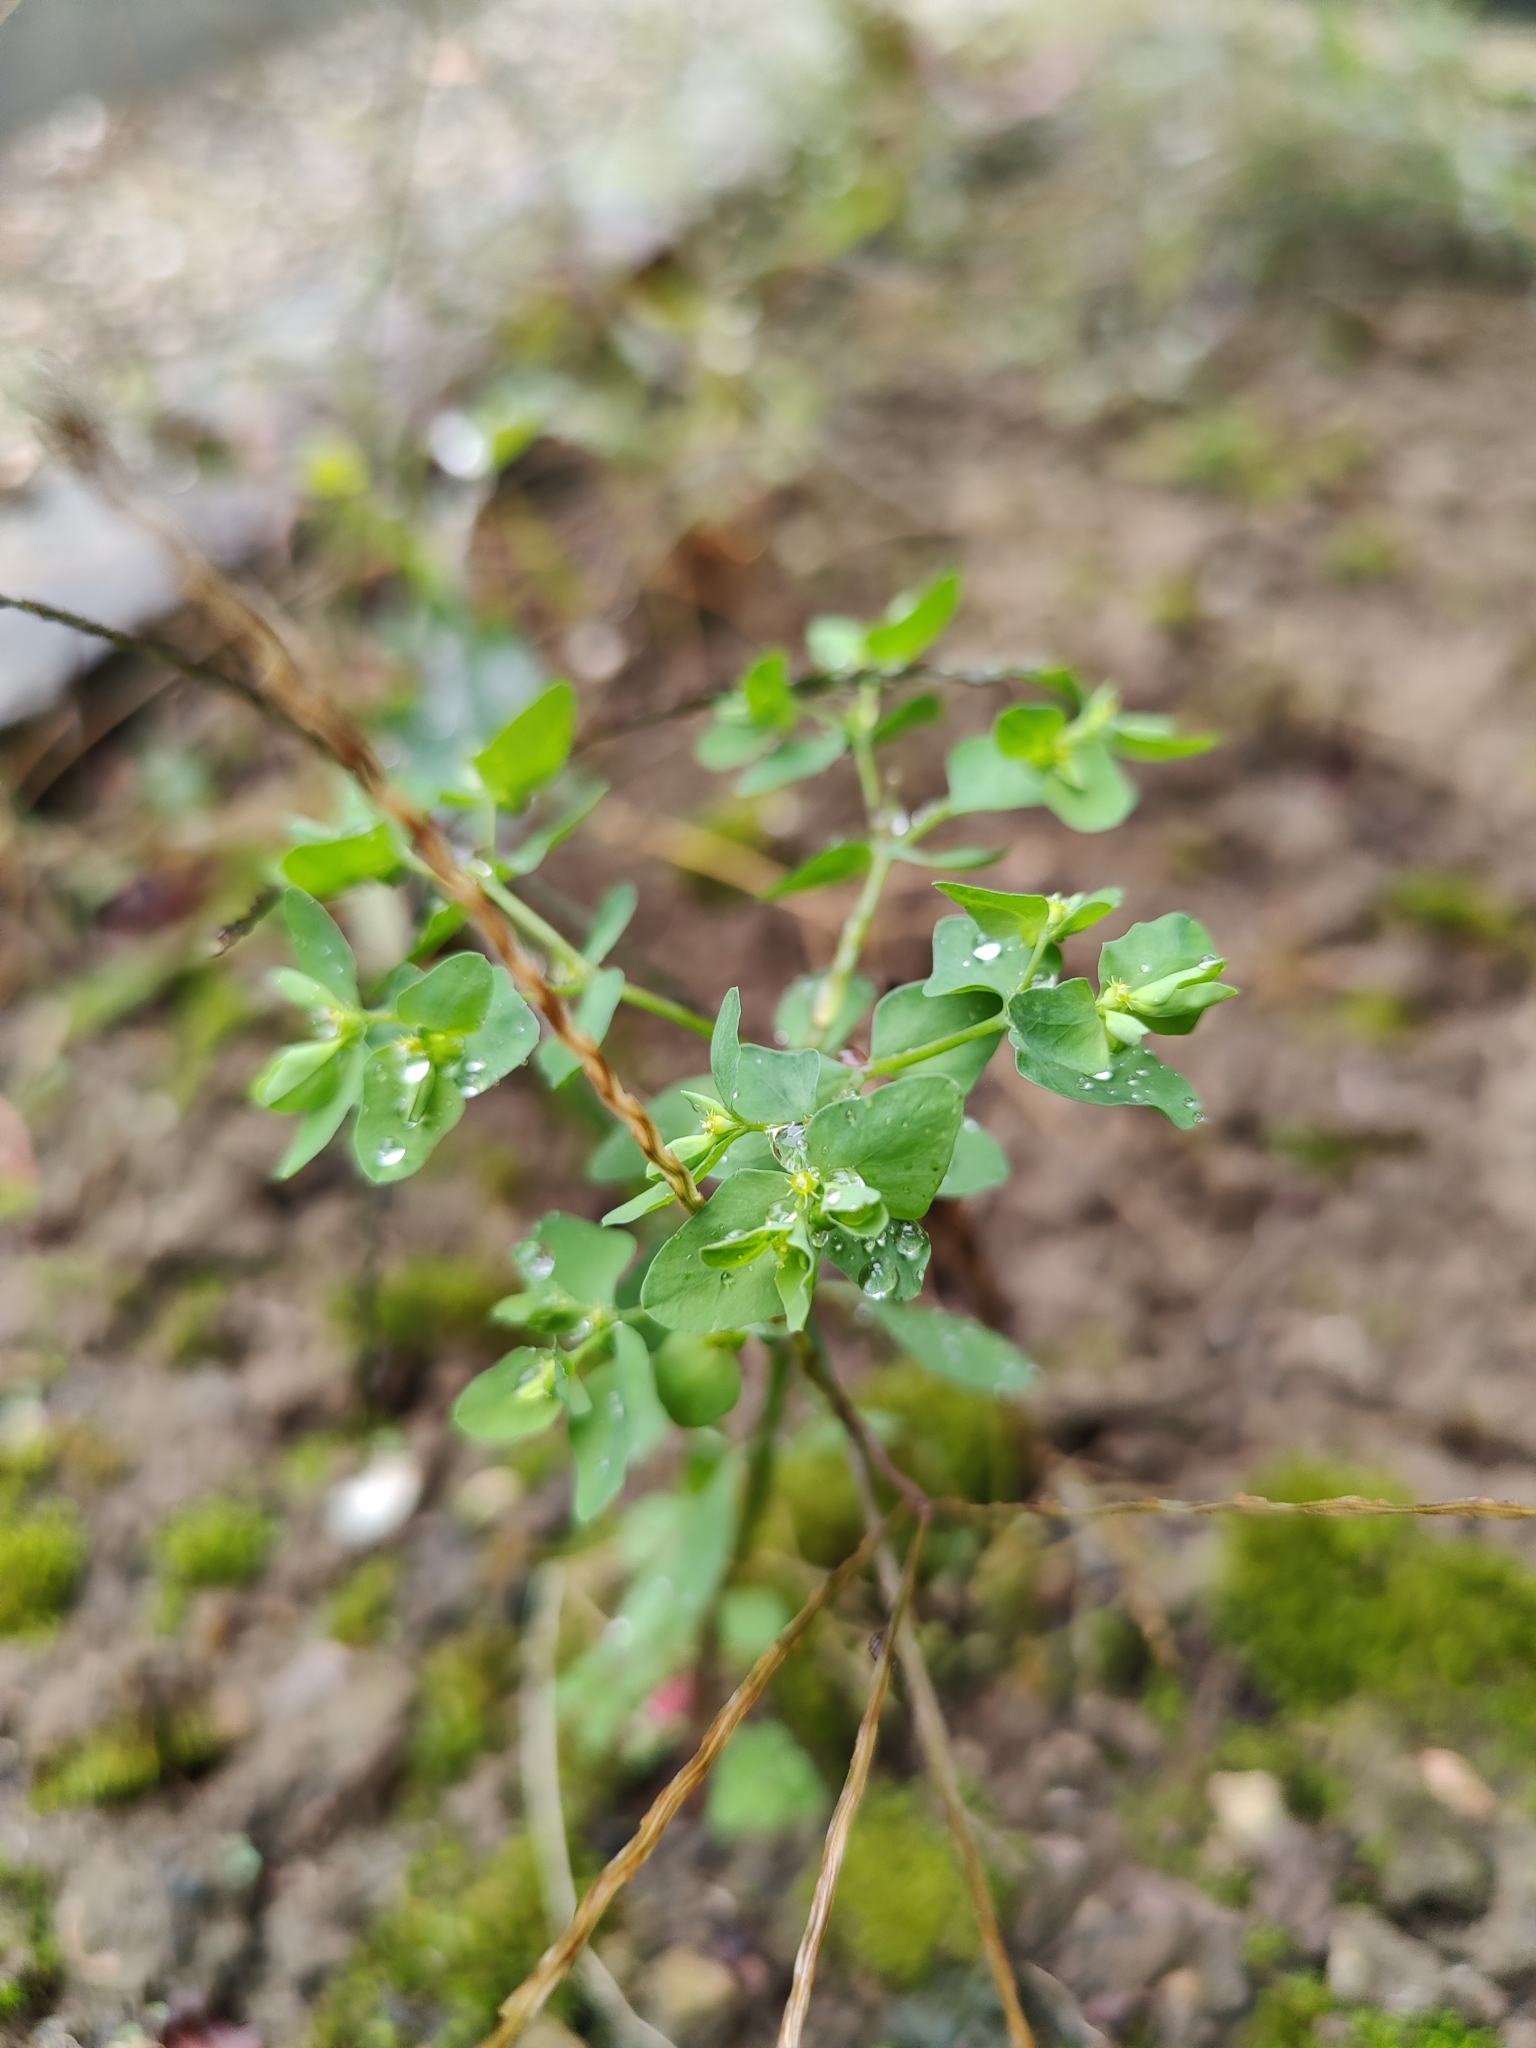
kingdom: Plantae
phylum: Tracheophyta
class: Magnoliopsida
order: Malpighiales
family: Euphorbiaceae
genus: Euphorbia
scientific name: Euphorbia peplus
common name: Petty spurge
